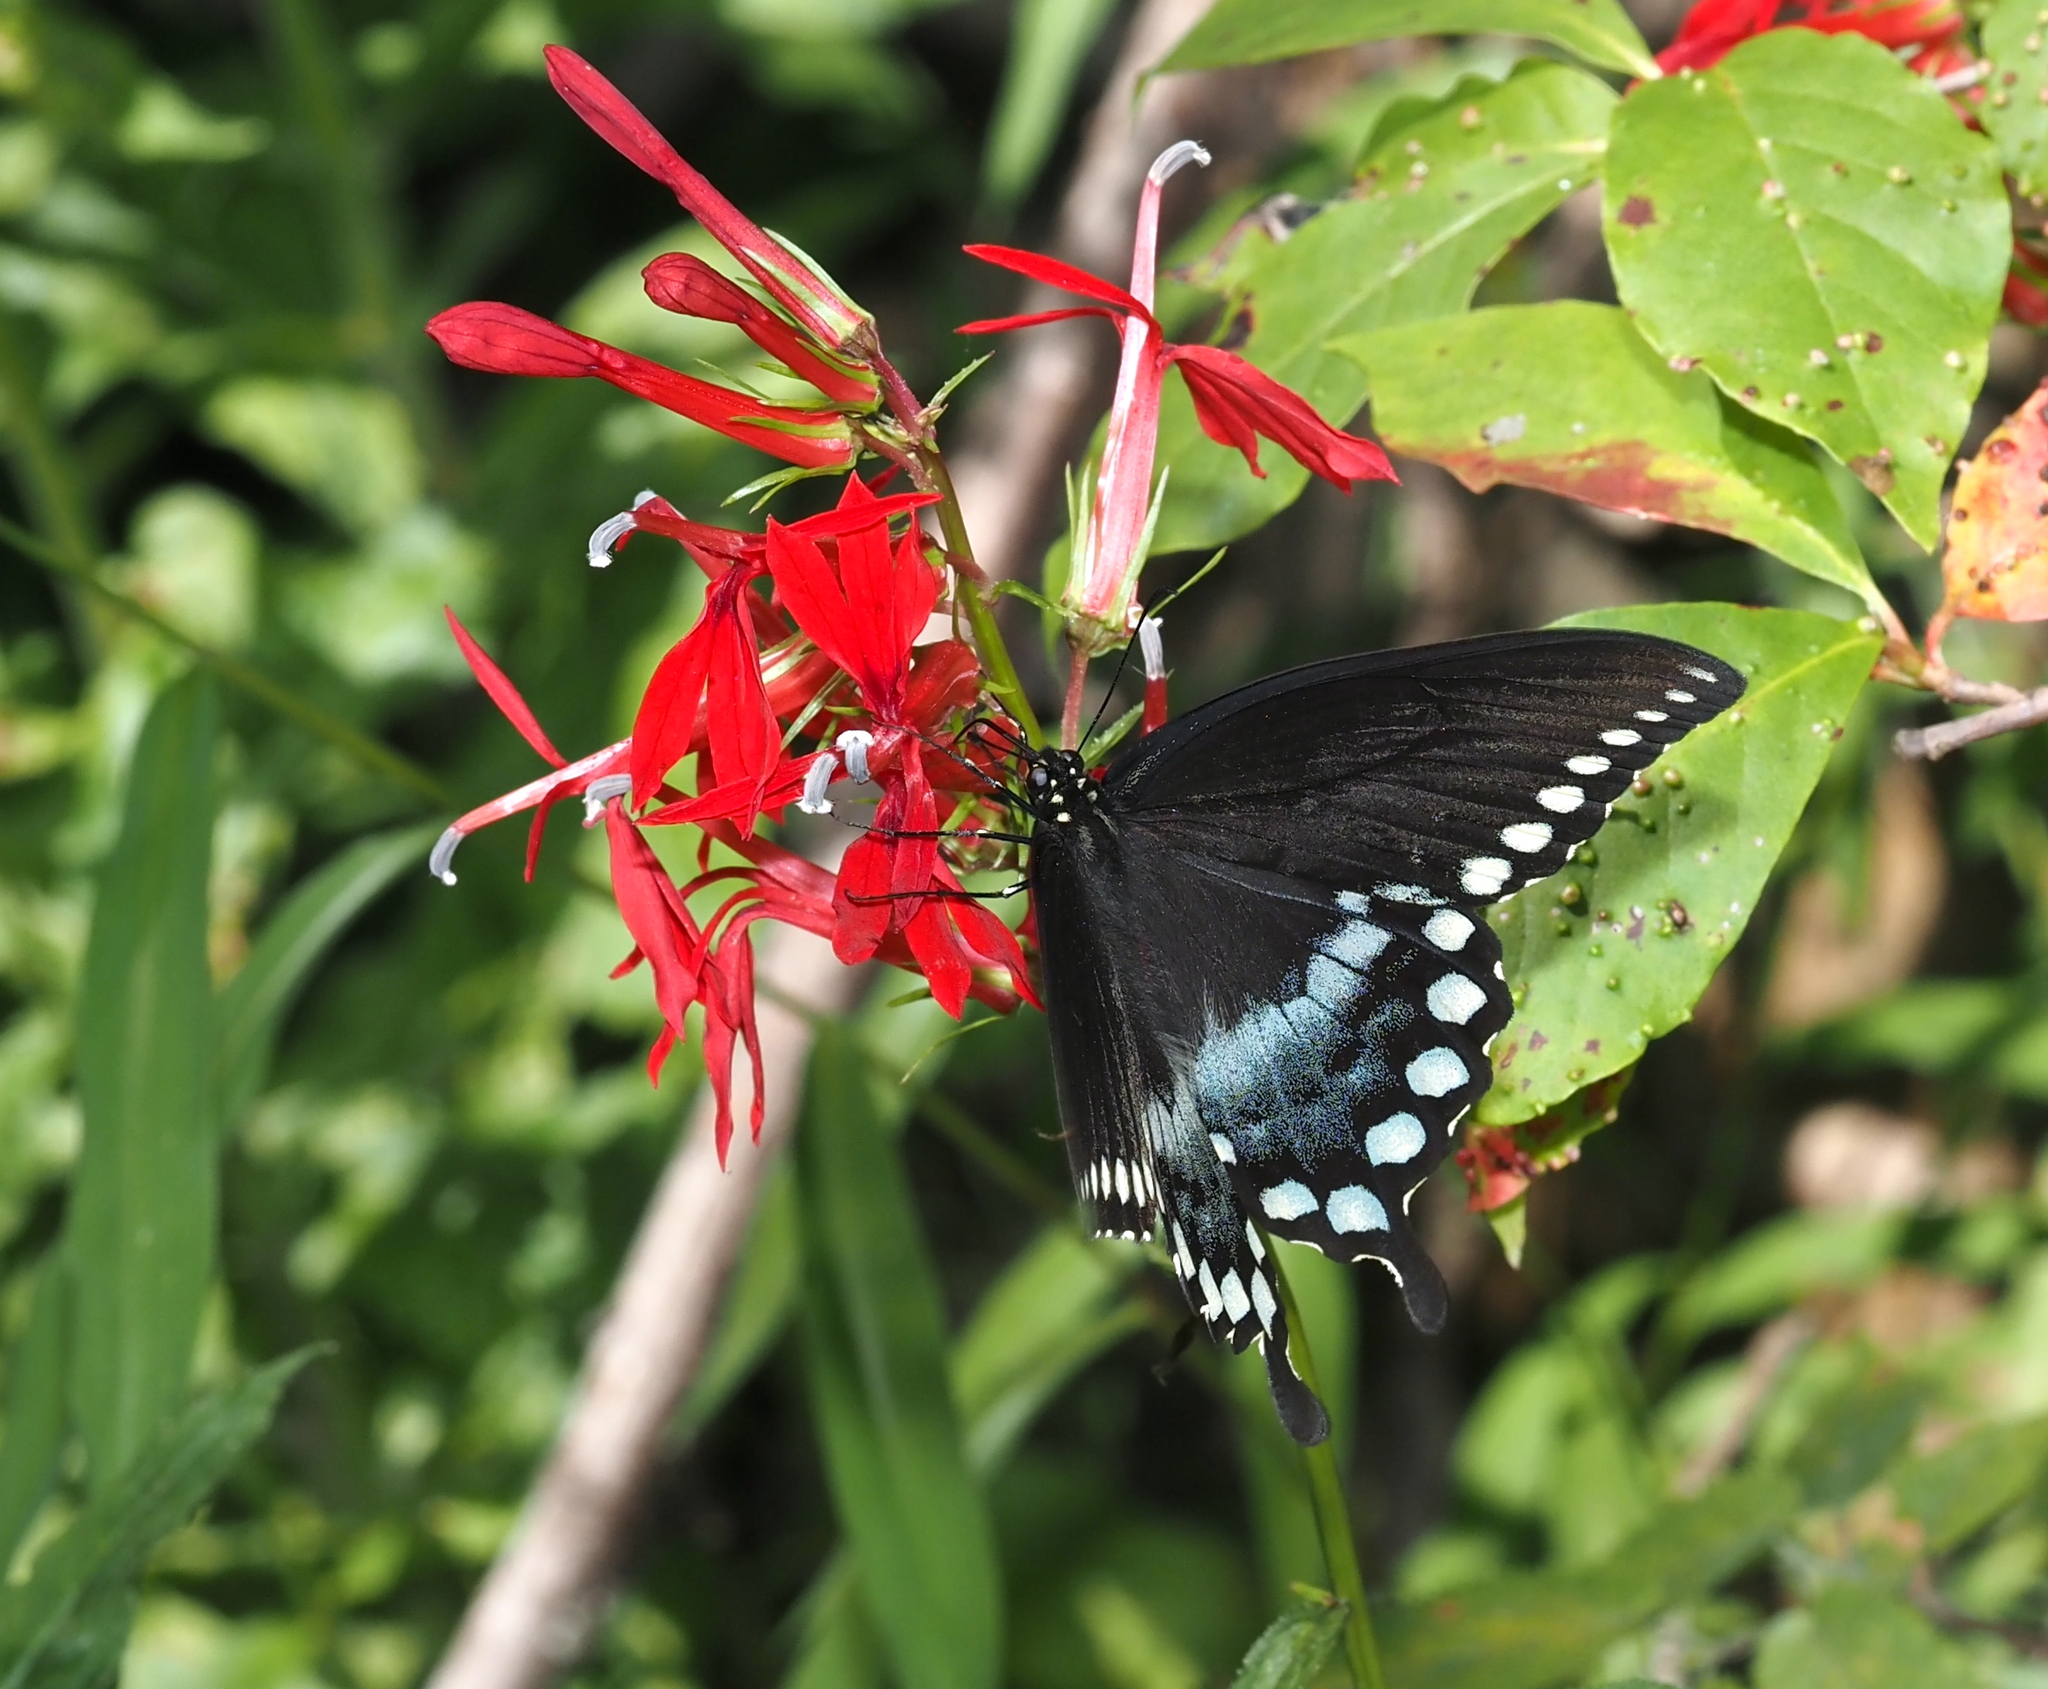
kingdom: Animalia
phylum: Arthropoda
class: Insecta
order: Lepidoptera
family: Papilionidae
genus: Papilio
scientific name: Papilio troilus
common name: Spicebush swallowtail
